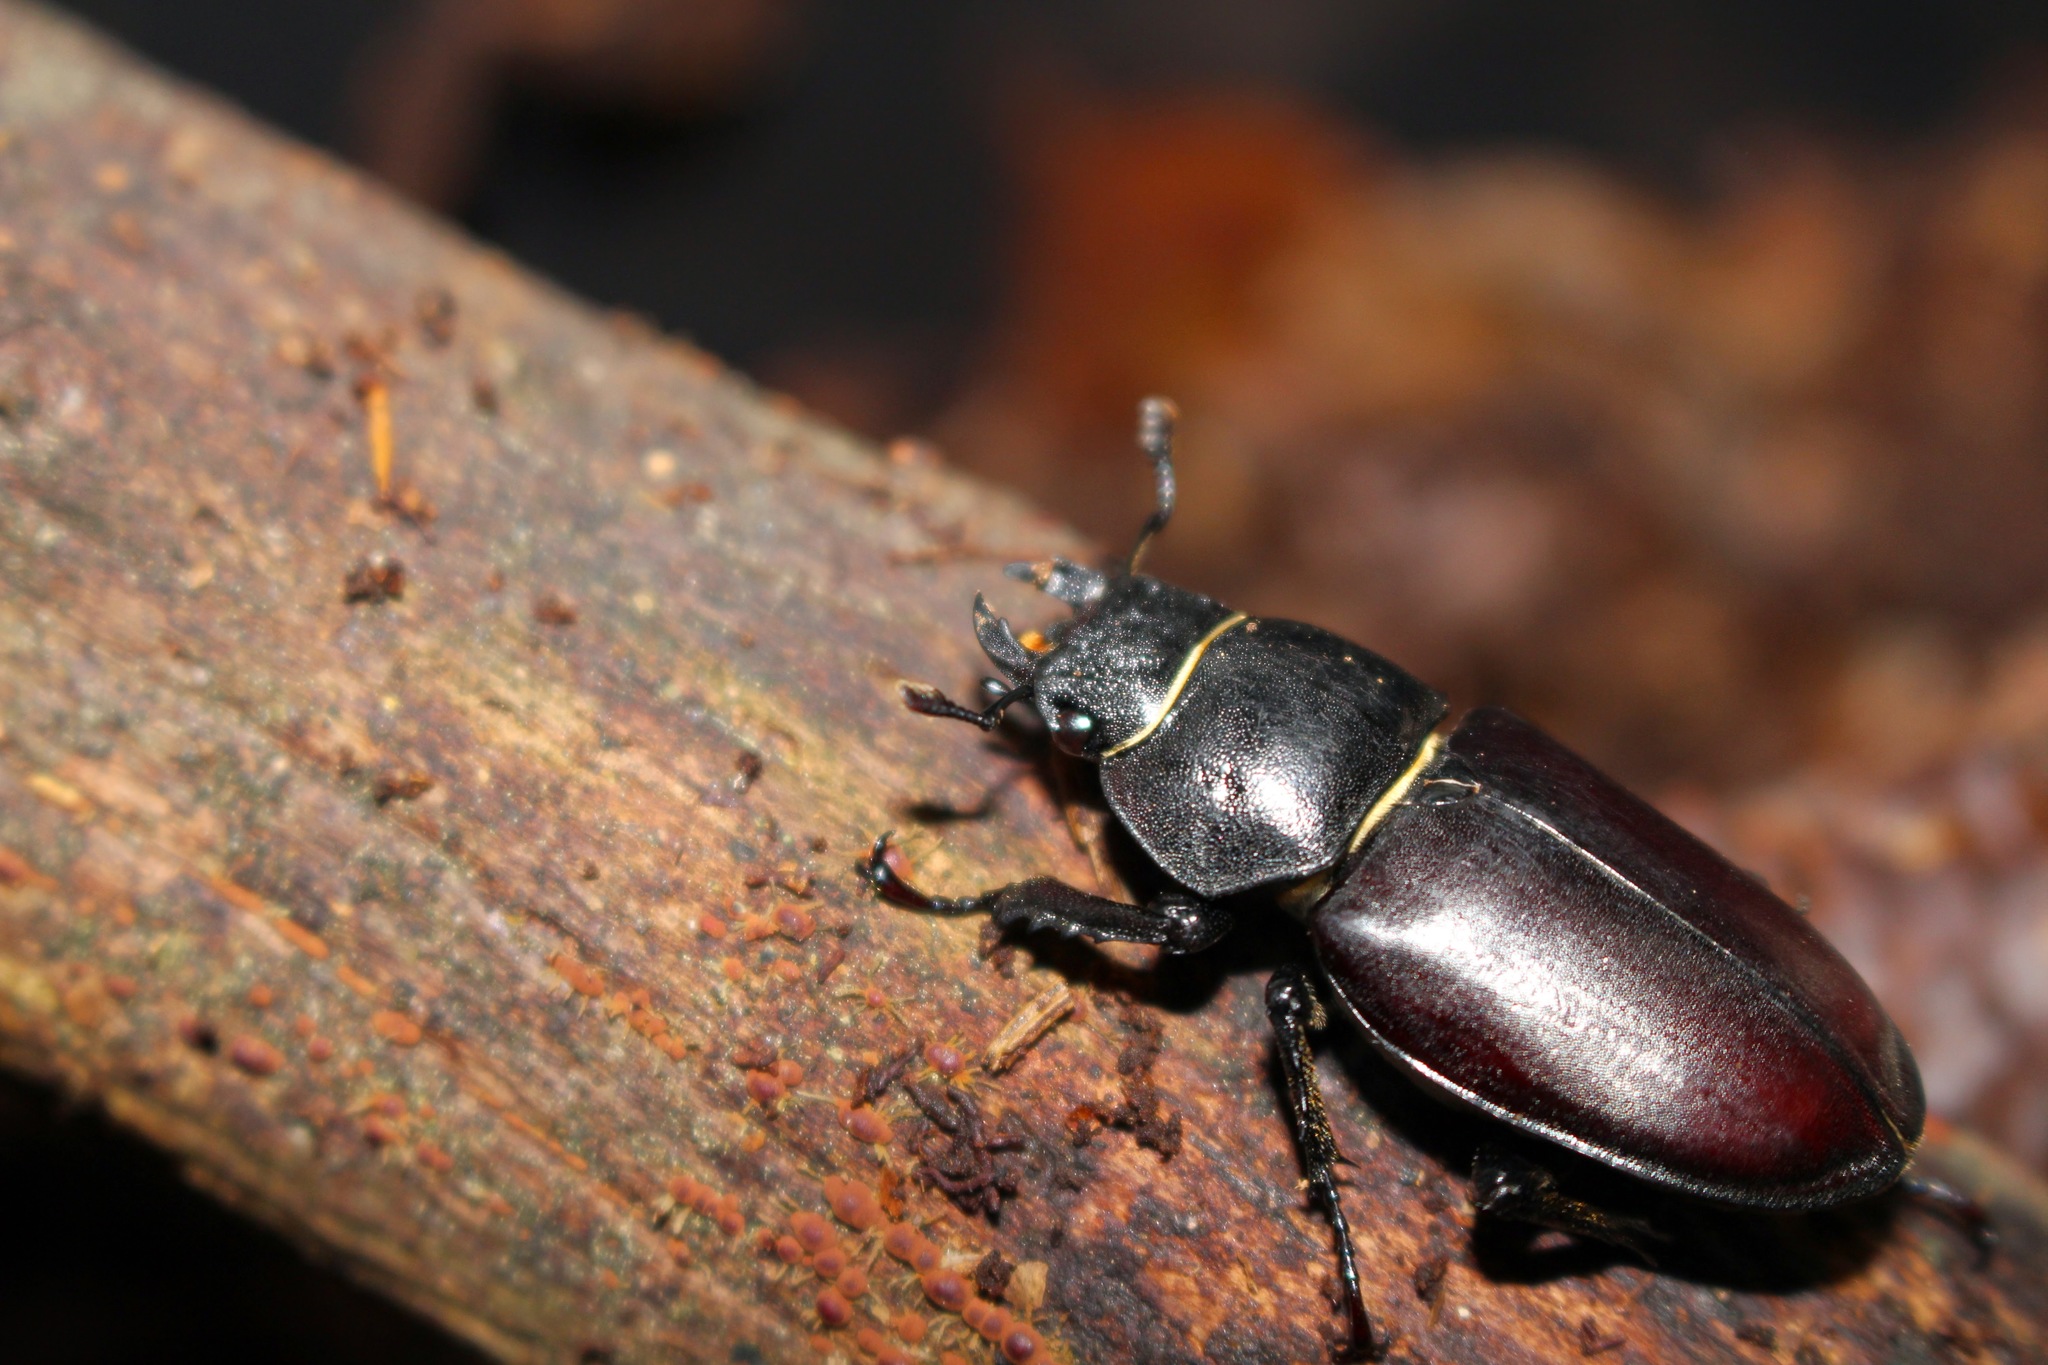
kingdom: Animalia
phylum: Arthropoda
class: Insecta
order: Coleoptera
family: Lucanidae
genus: Lucanus
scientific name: Lucanus cervus
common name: Stag beetle
